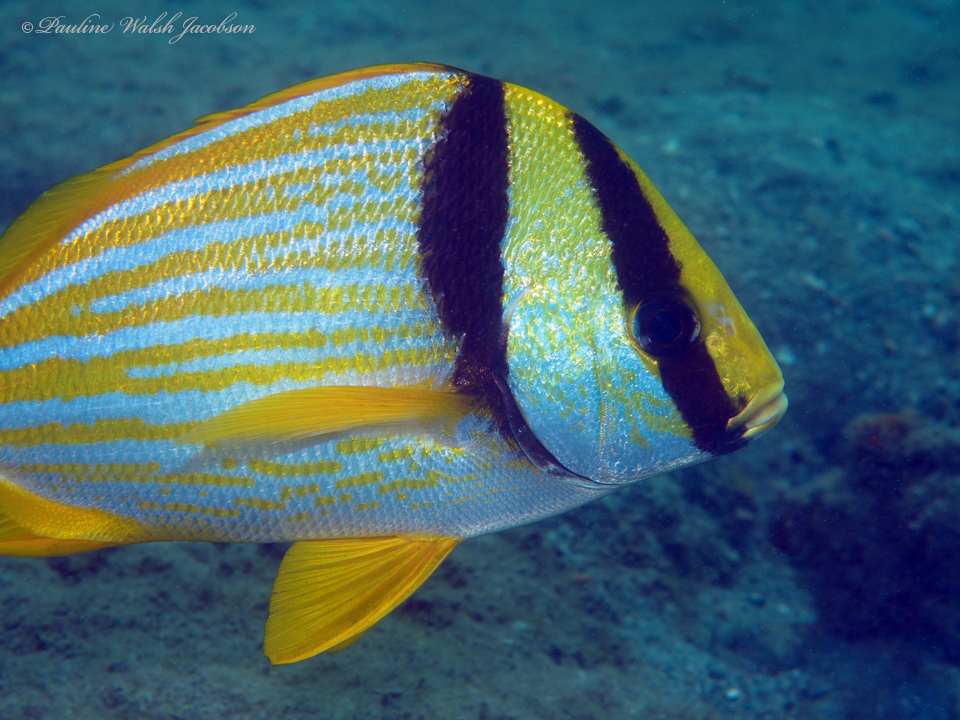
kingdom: Animalia
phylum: Chordata
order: Perciformes
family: Haemulidae
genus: Anisotremus
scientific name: Anisotremus virginicus
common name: Porkfish
